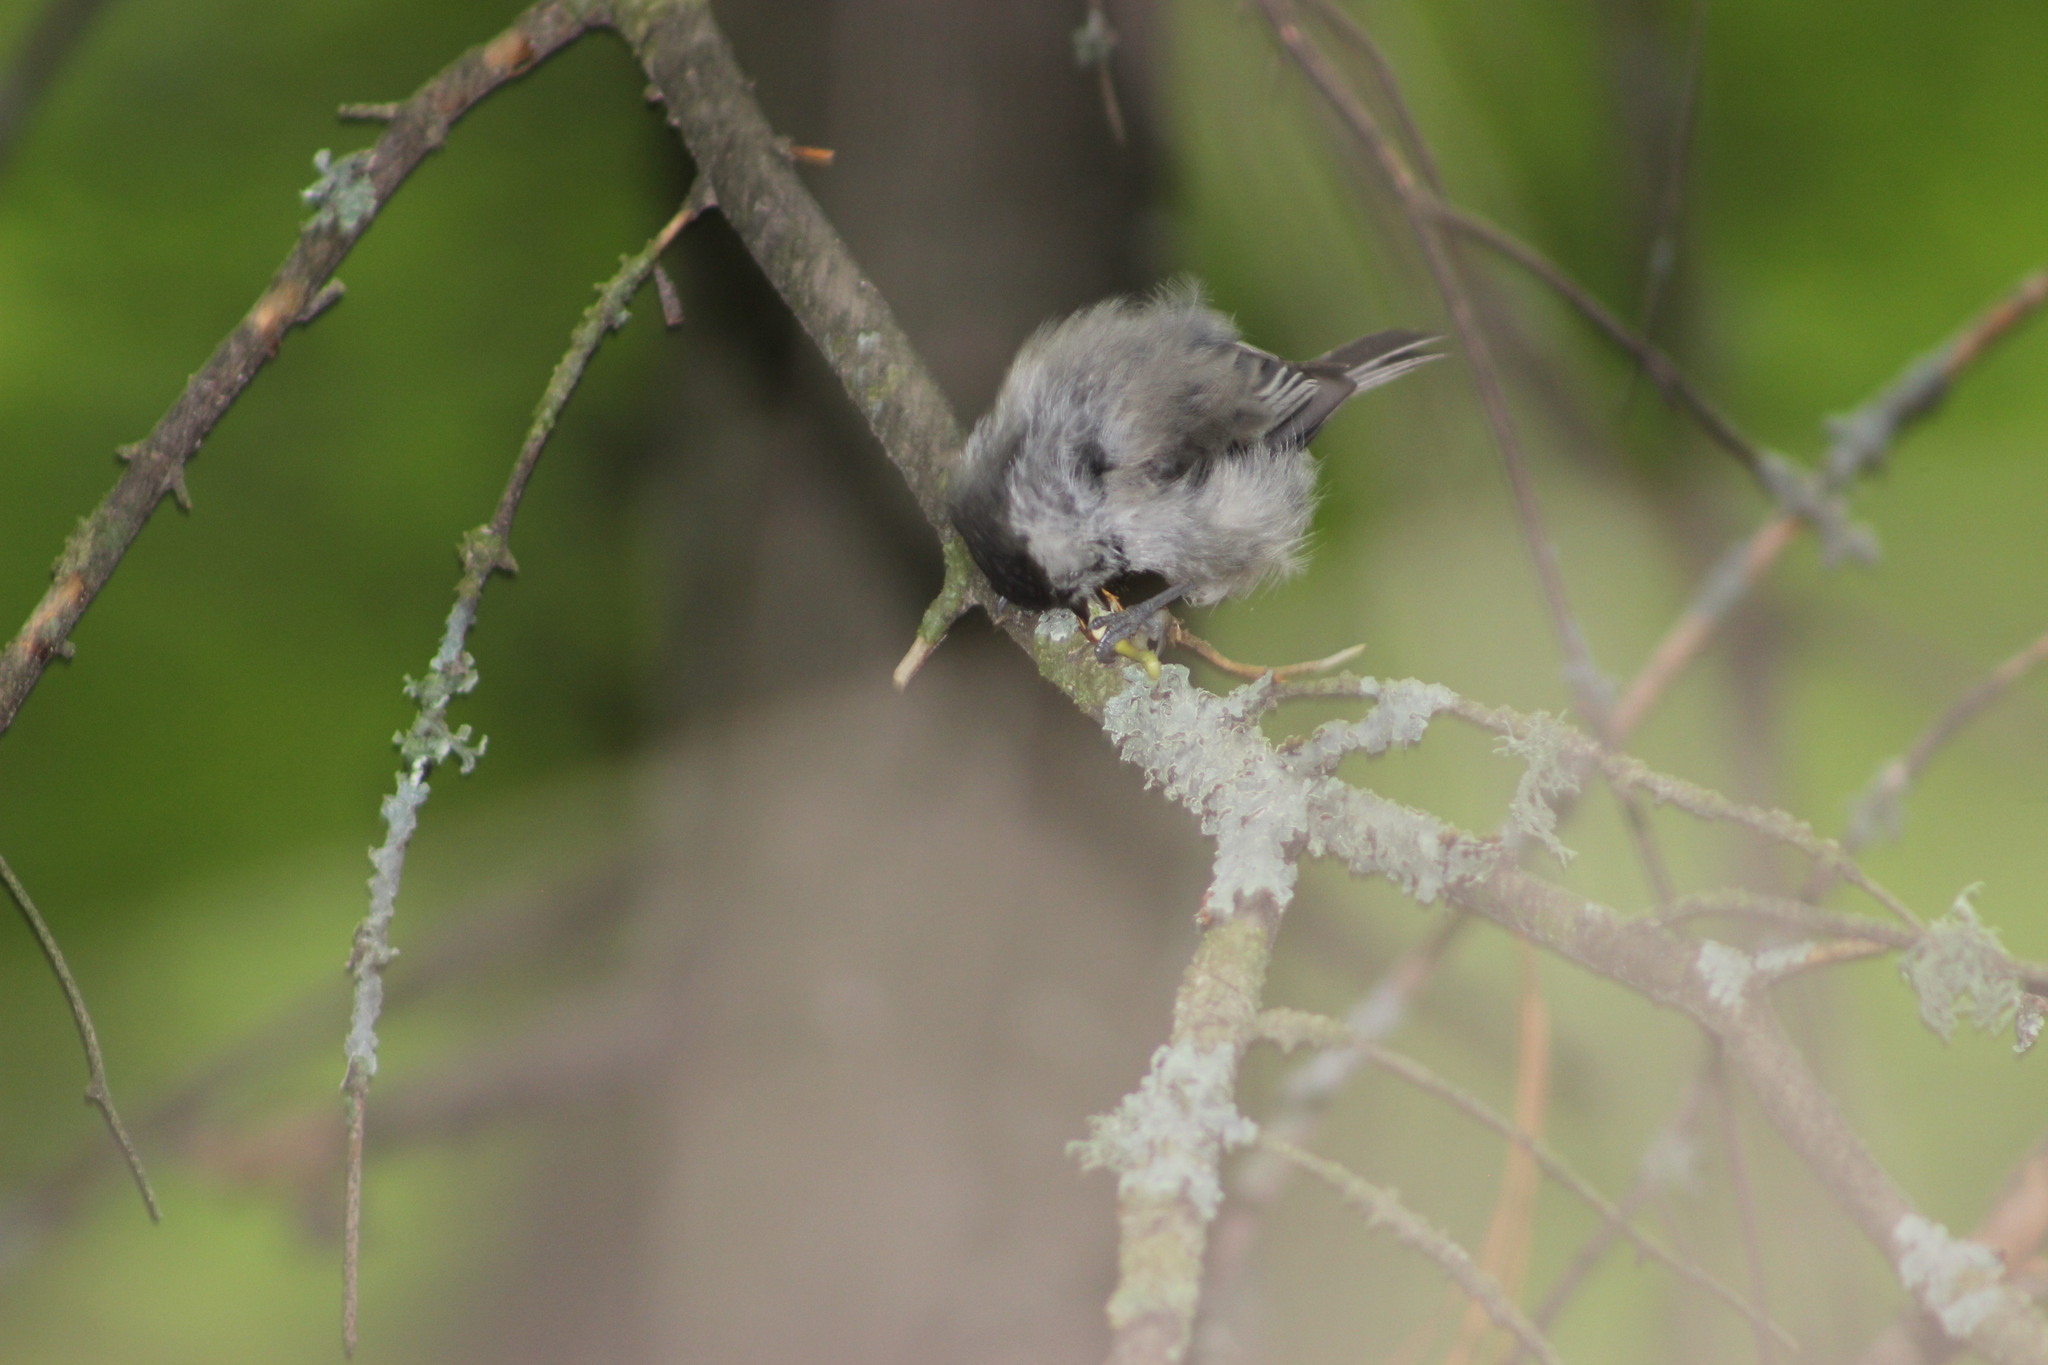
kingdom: Animalia
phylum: Chordata
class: Aves
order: Passeriformes
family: Paridae
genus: Poecile
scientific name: Poecile montanus
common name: Willow tit
